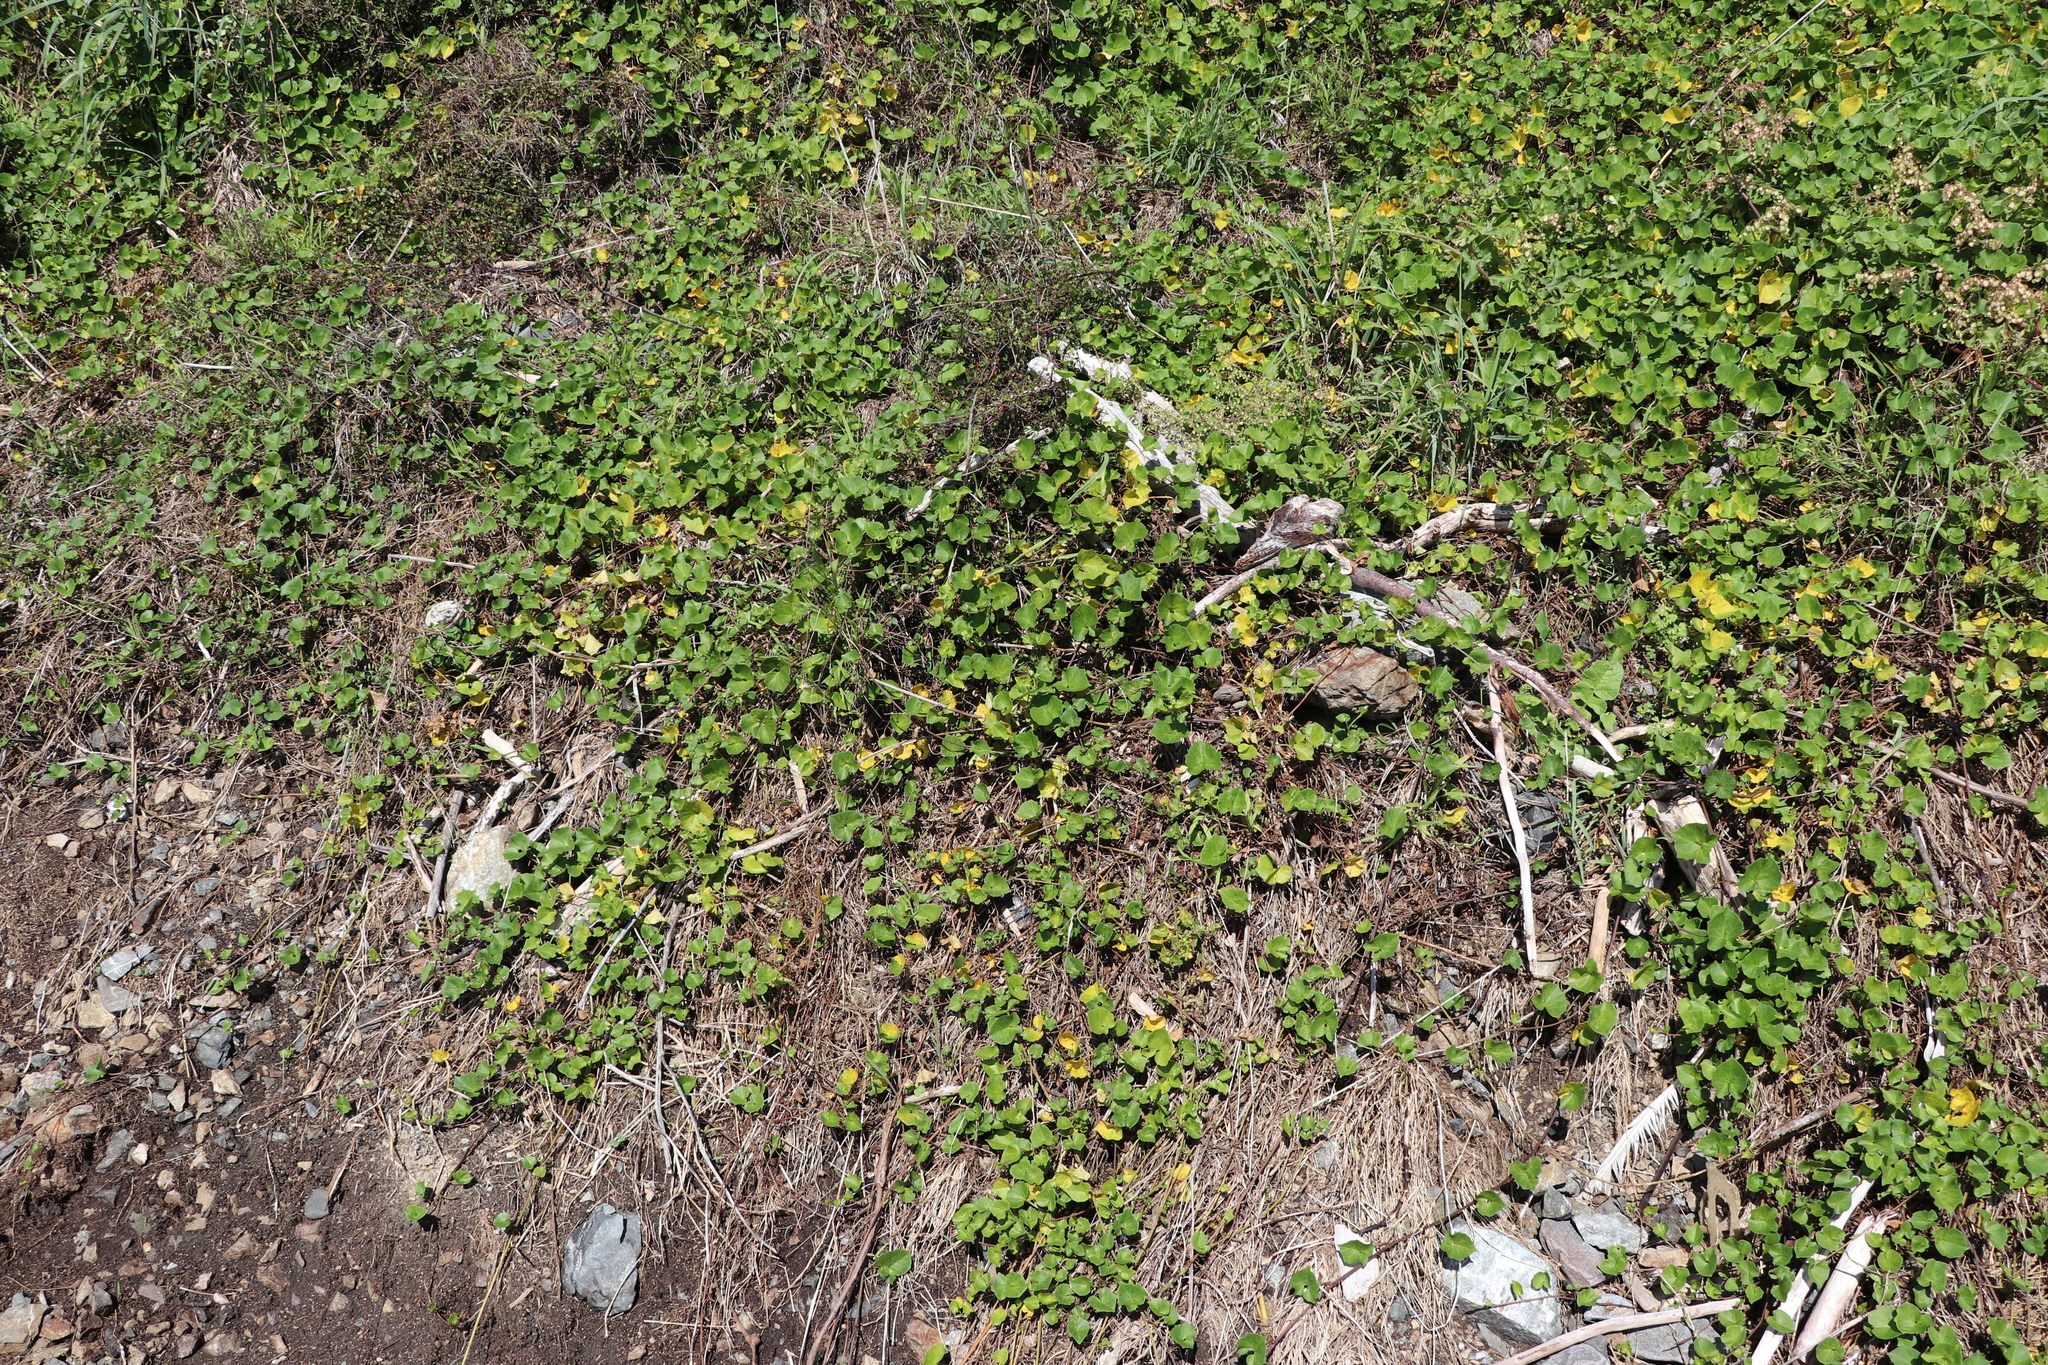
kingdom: Plantae
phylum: Tracheophyta
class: Magnoliopsida
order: Solanales
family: Convolvulaceae
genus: Calystegia
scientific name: Calystegia soldanella
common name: Sea bindweed
